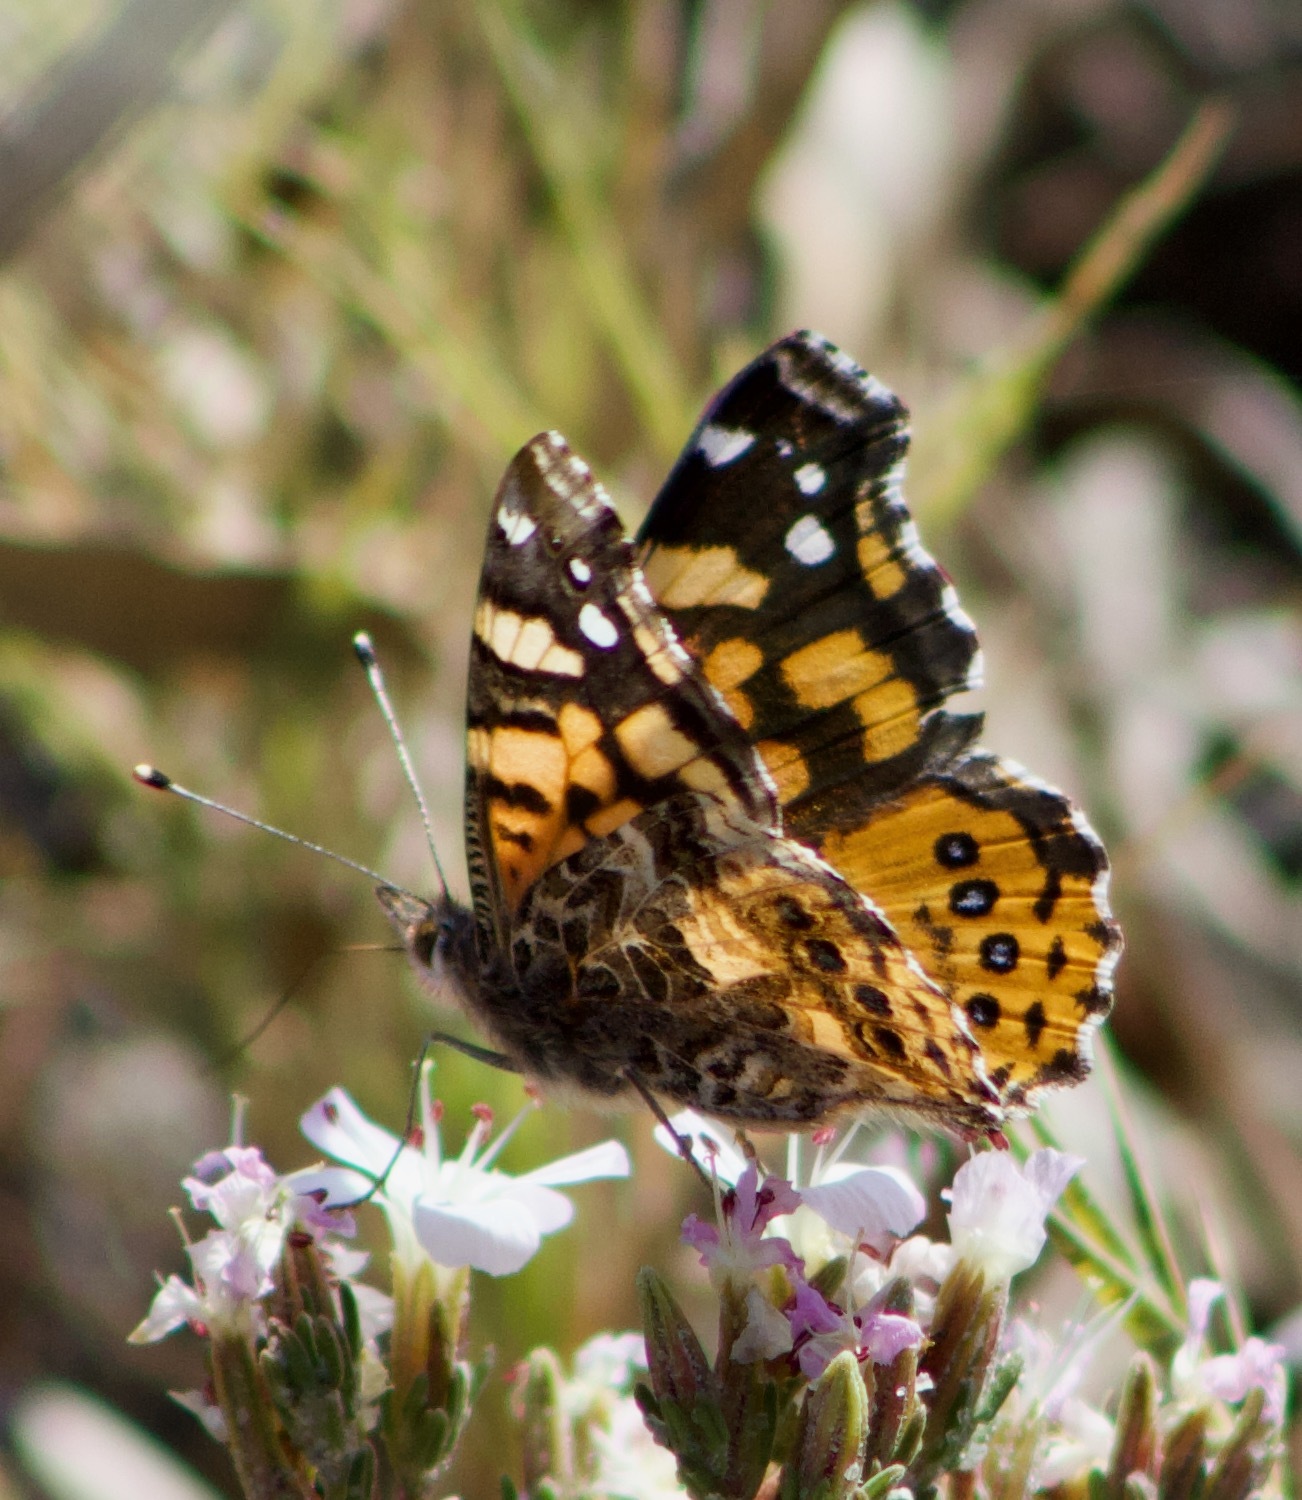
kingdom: Animalia
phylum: Arthropoda
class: Insecta
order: Lepidoptera
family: Nymphalidae
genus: Vanessa
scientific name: Vanessa carye
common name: Subtropical lady
